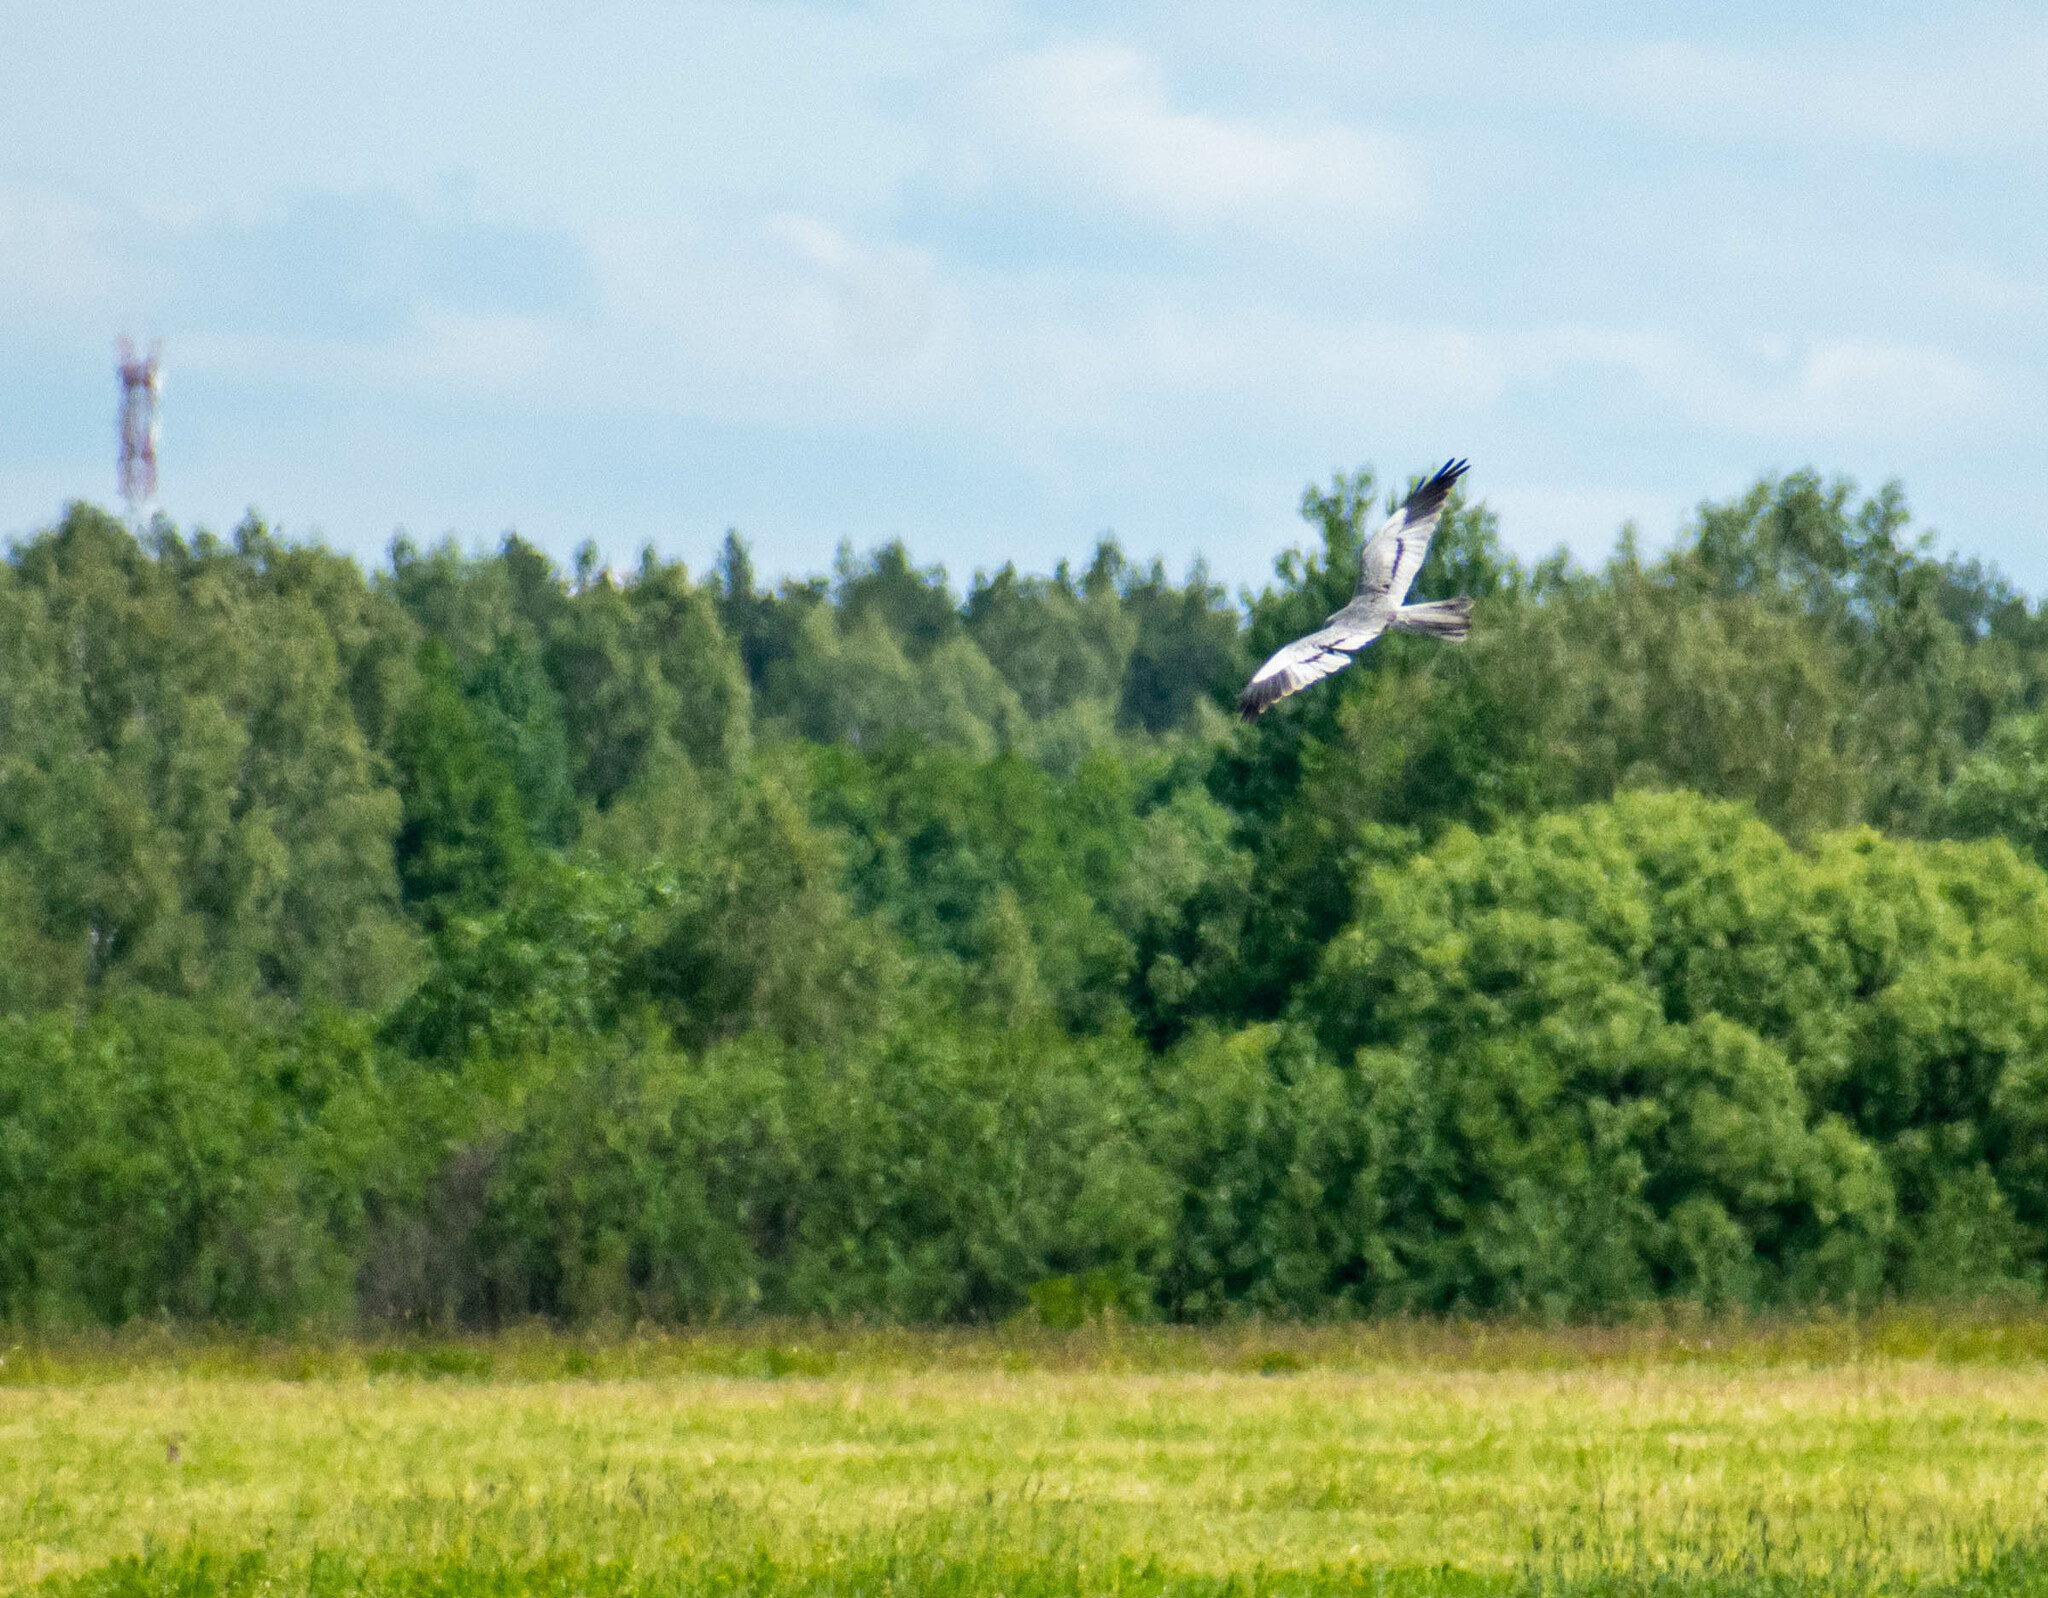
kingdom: Animalia
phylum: Chordata
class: Aves
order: Accipitriformes
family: Accipitridae
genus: Circus
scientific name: Circus pygargus
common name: Montagu's harrier
